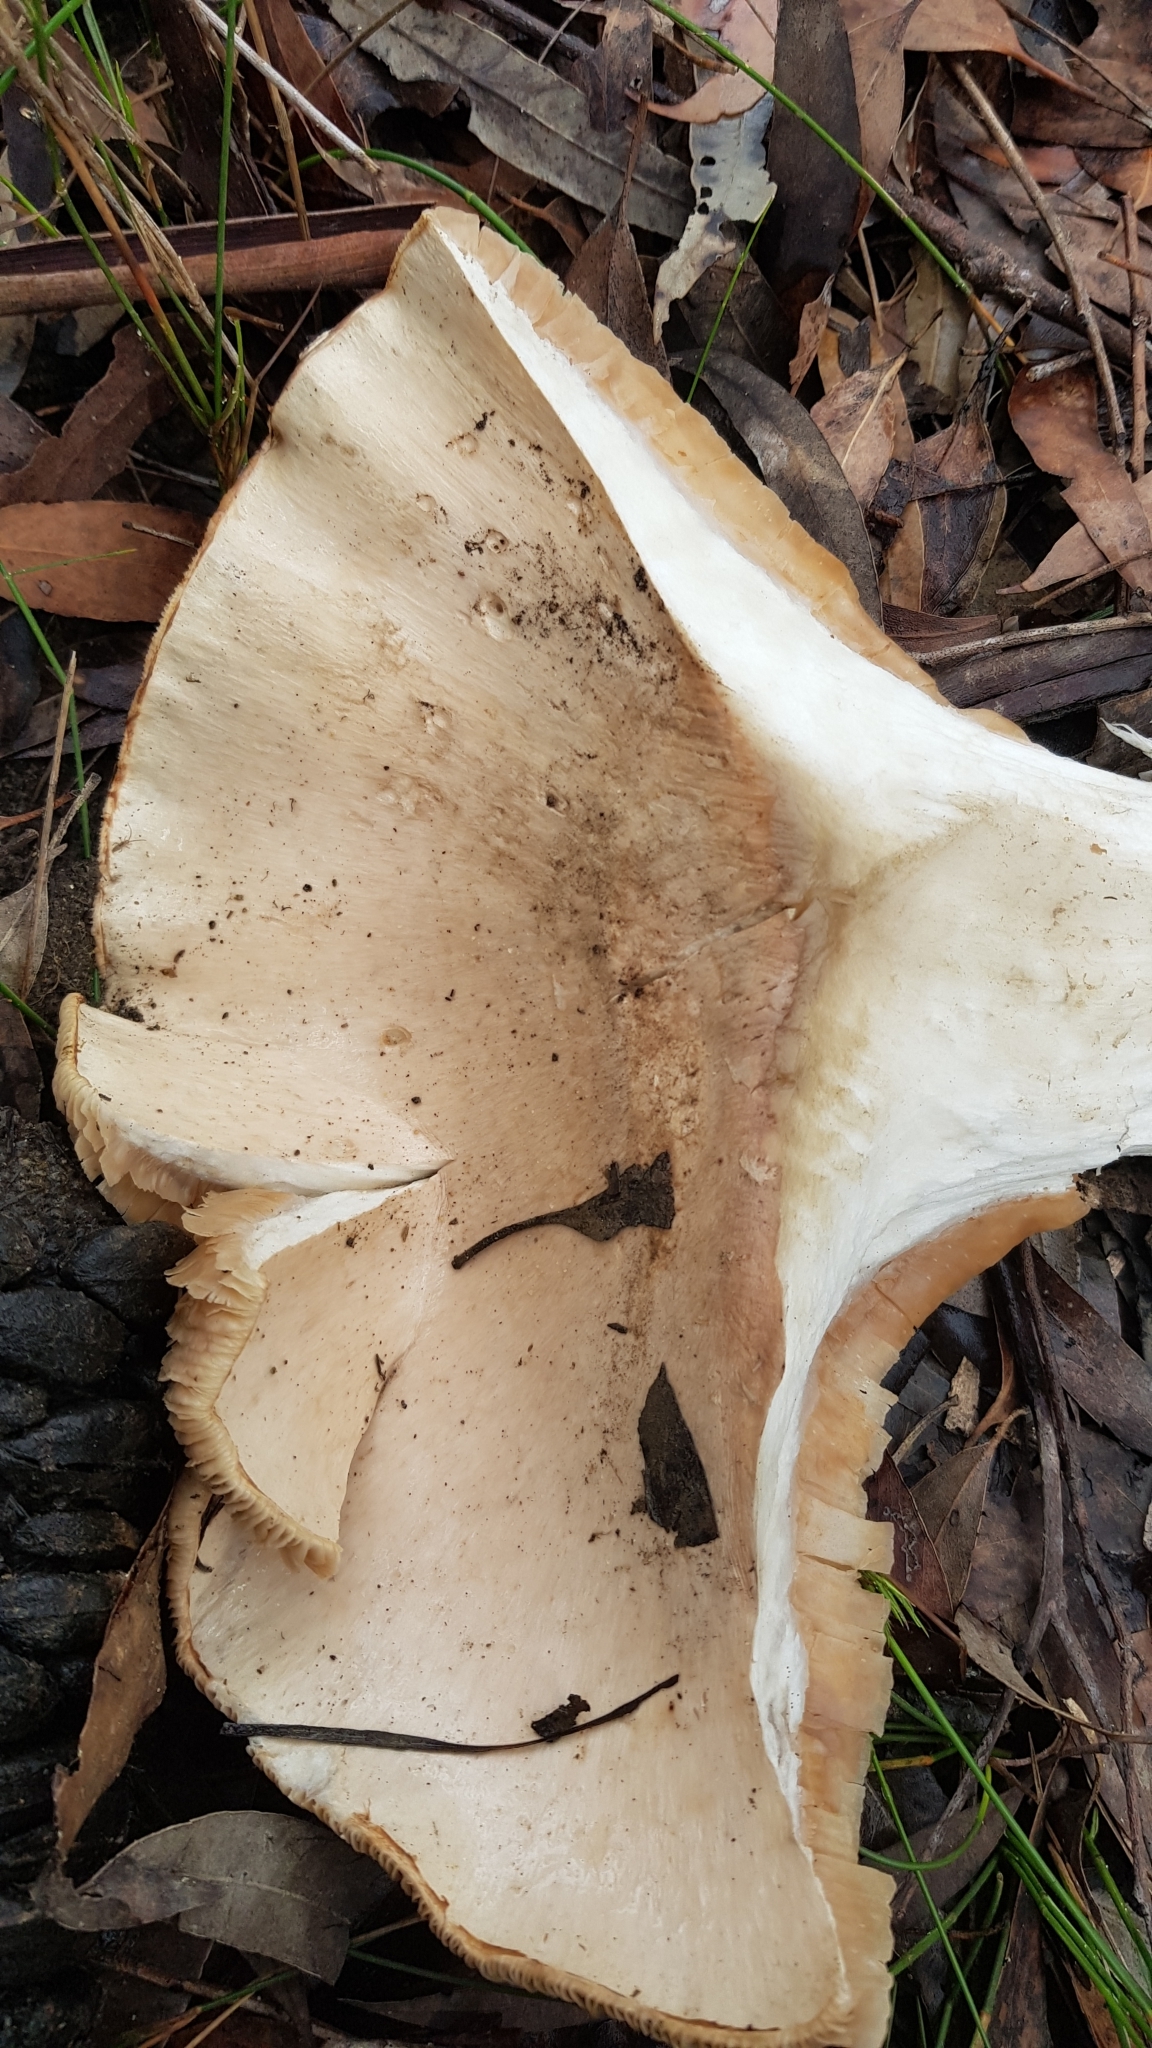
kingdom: Fungi
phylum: Basidiomycota
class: Agaricomycetes
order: Agaricales
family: Cortinariaceae
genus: Austrocortinarius
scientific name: Austrocortinarius australiensis
